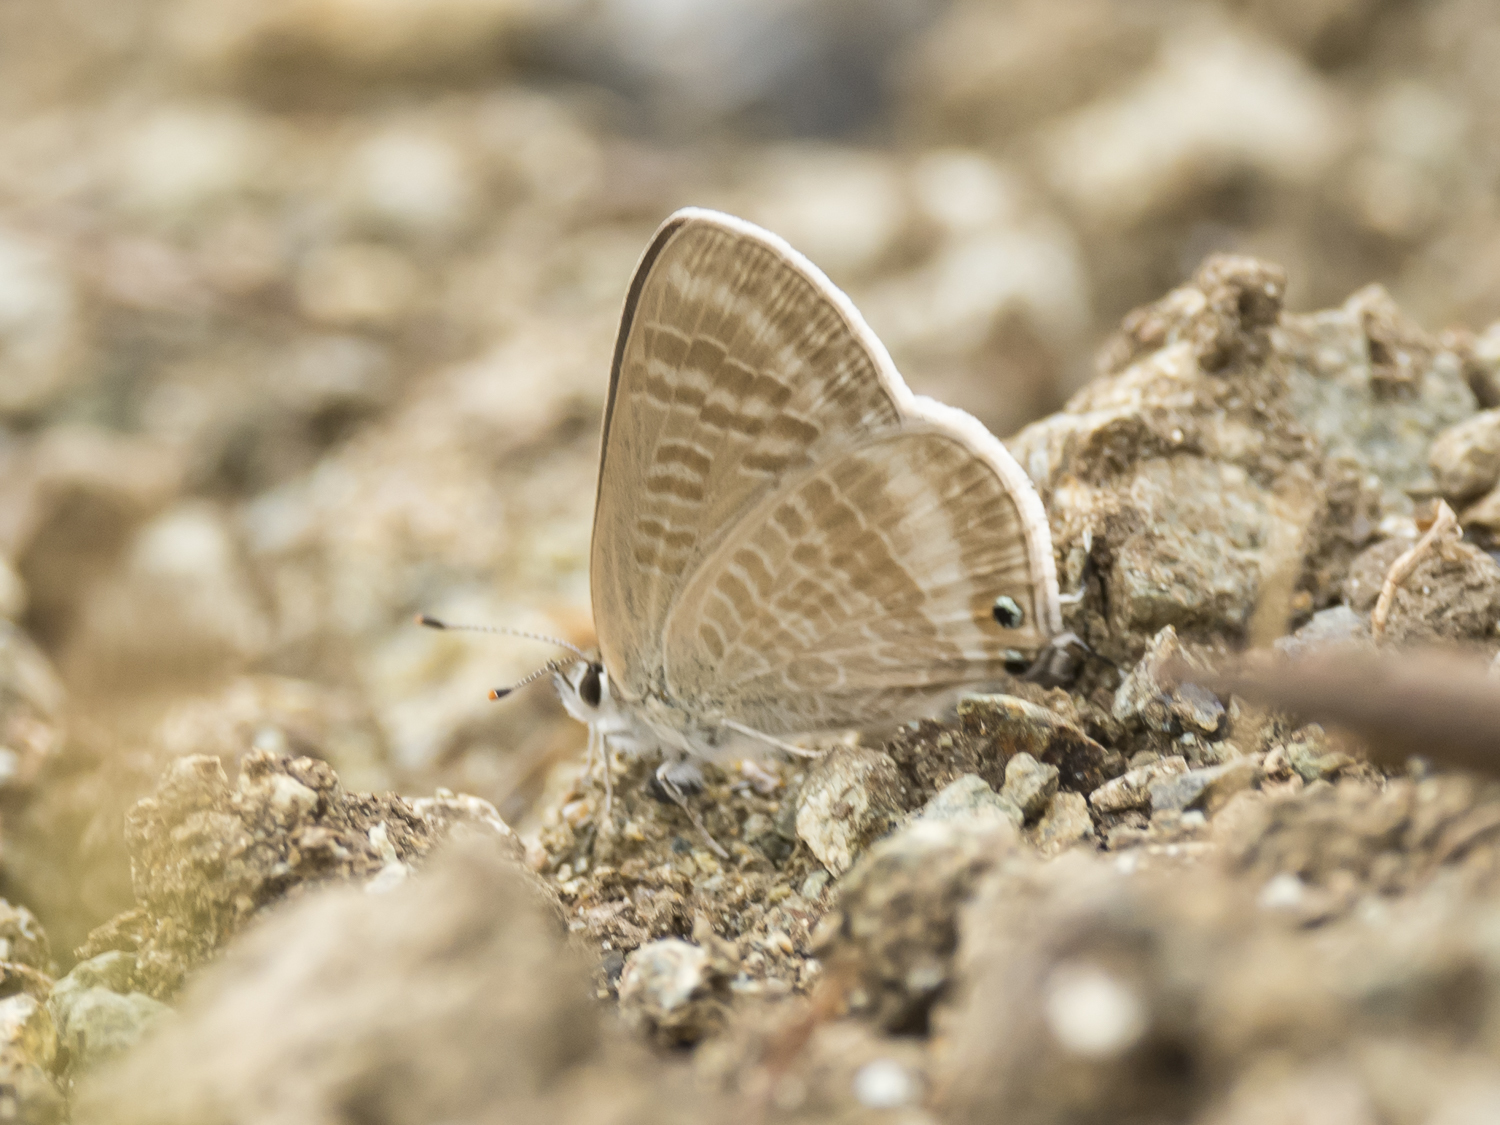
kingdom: Animalia
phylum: Arthropoda
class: Insecta
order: Lepidoptera
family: Lycaenidae
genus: Lampides
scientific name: Lampides boeticus
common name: Long-tailed blue
